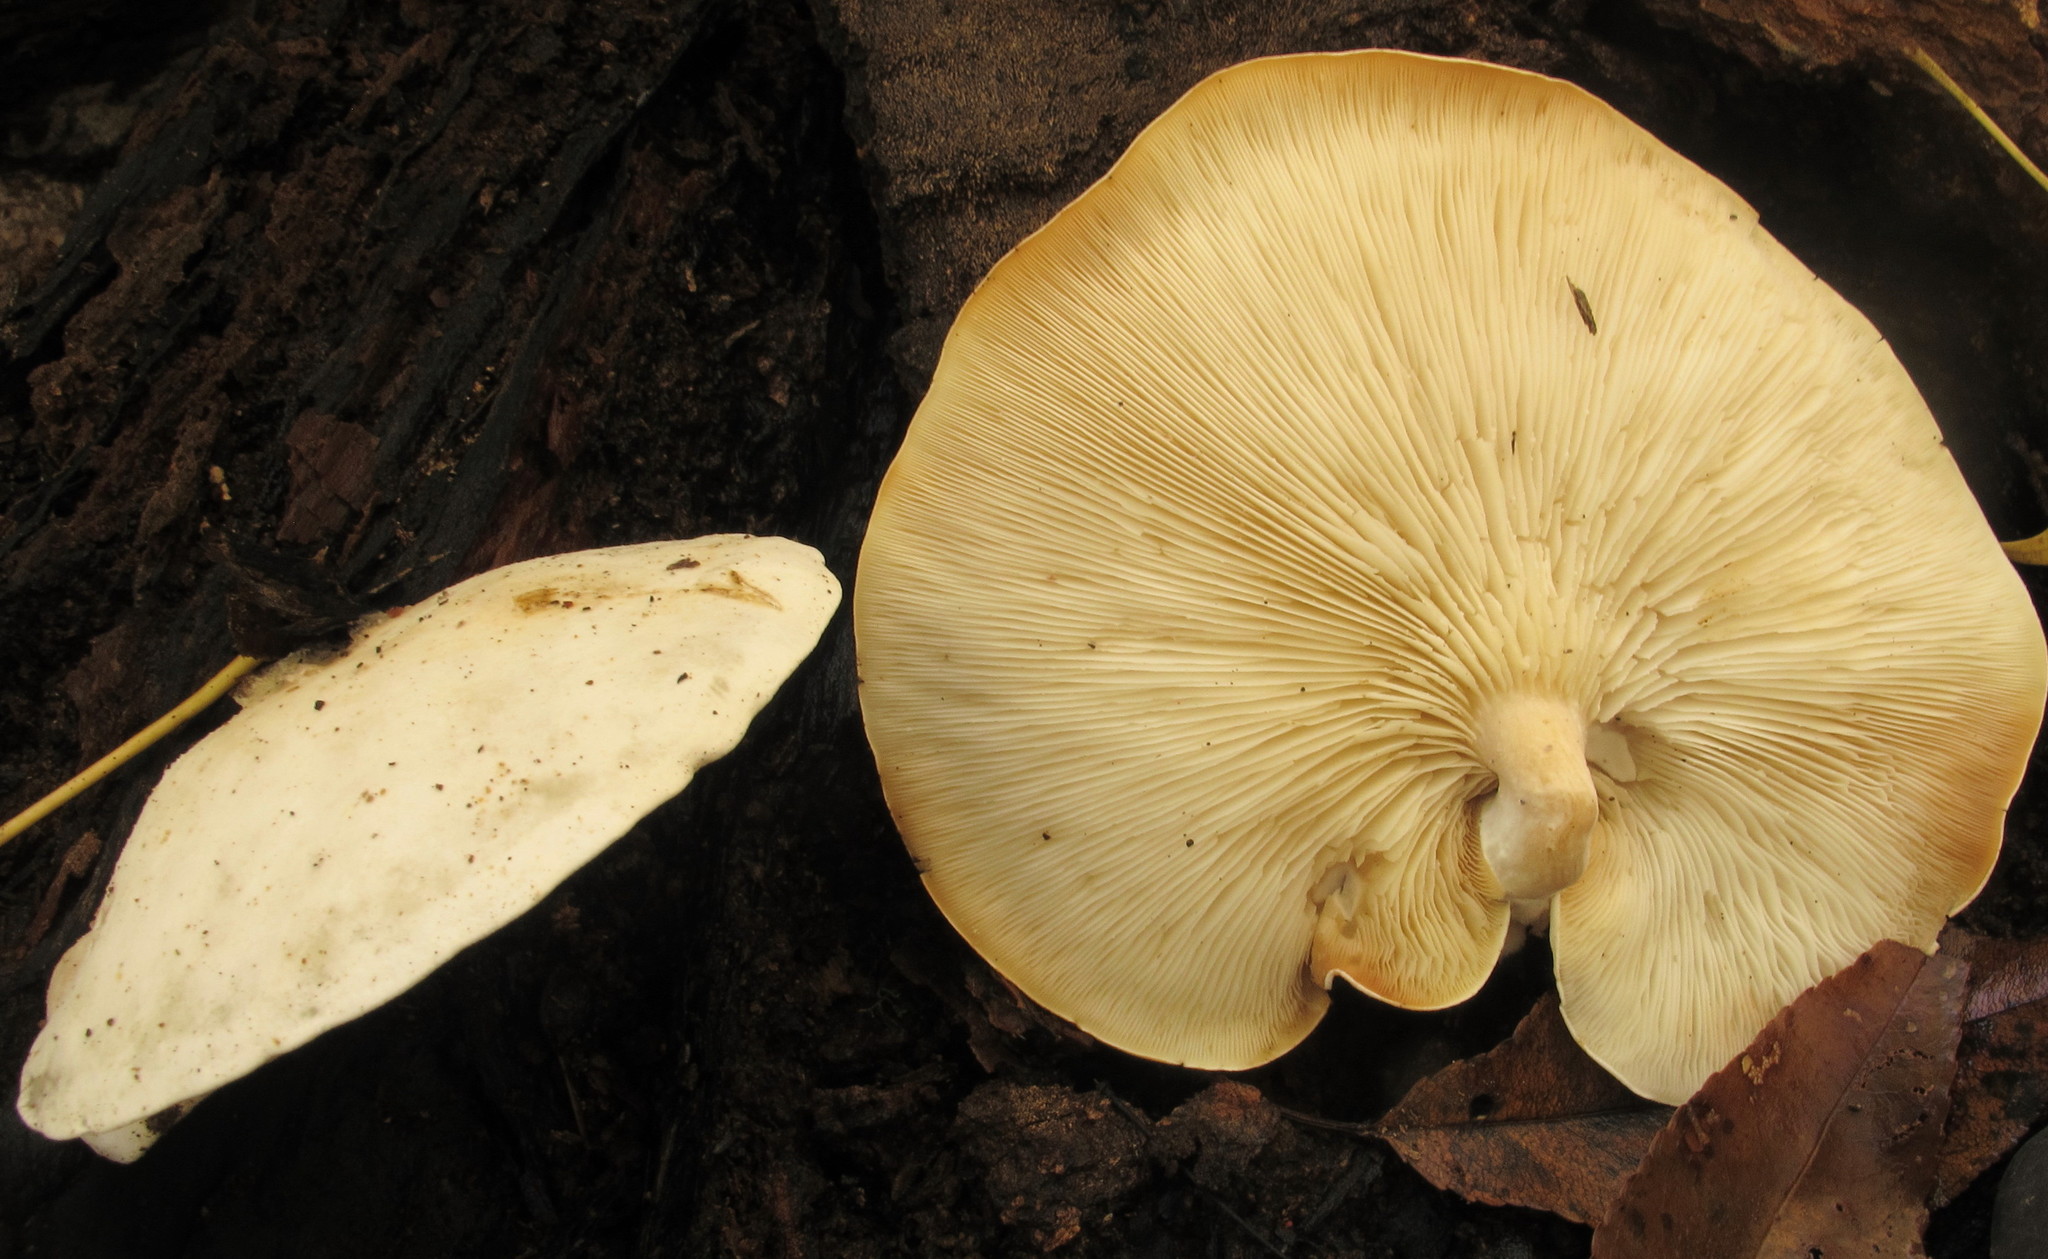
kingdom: Fungi
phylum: Basidiomycota
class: Agaricomycetes
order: Agaricales
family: Lyophyllaceae
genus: Ossicaulis
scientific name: Ossicaulis lignatilis
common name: Mealy oyster
